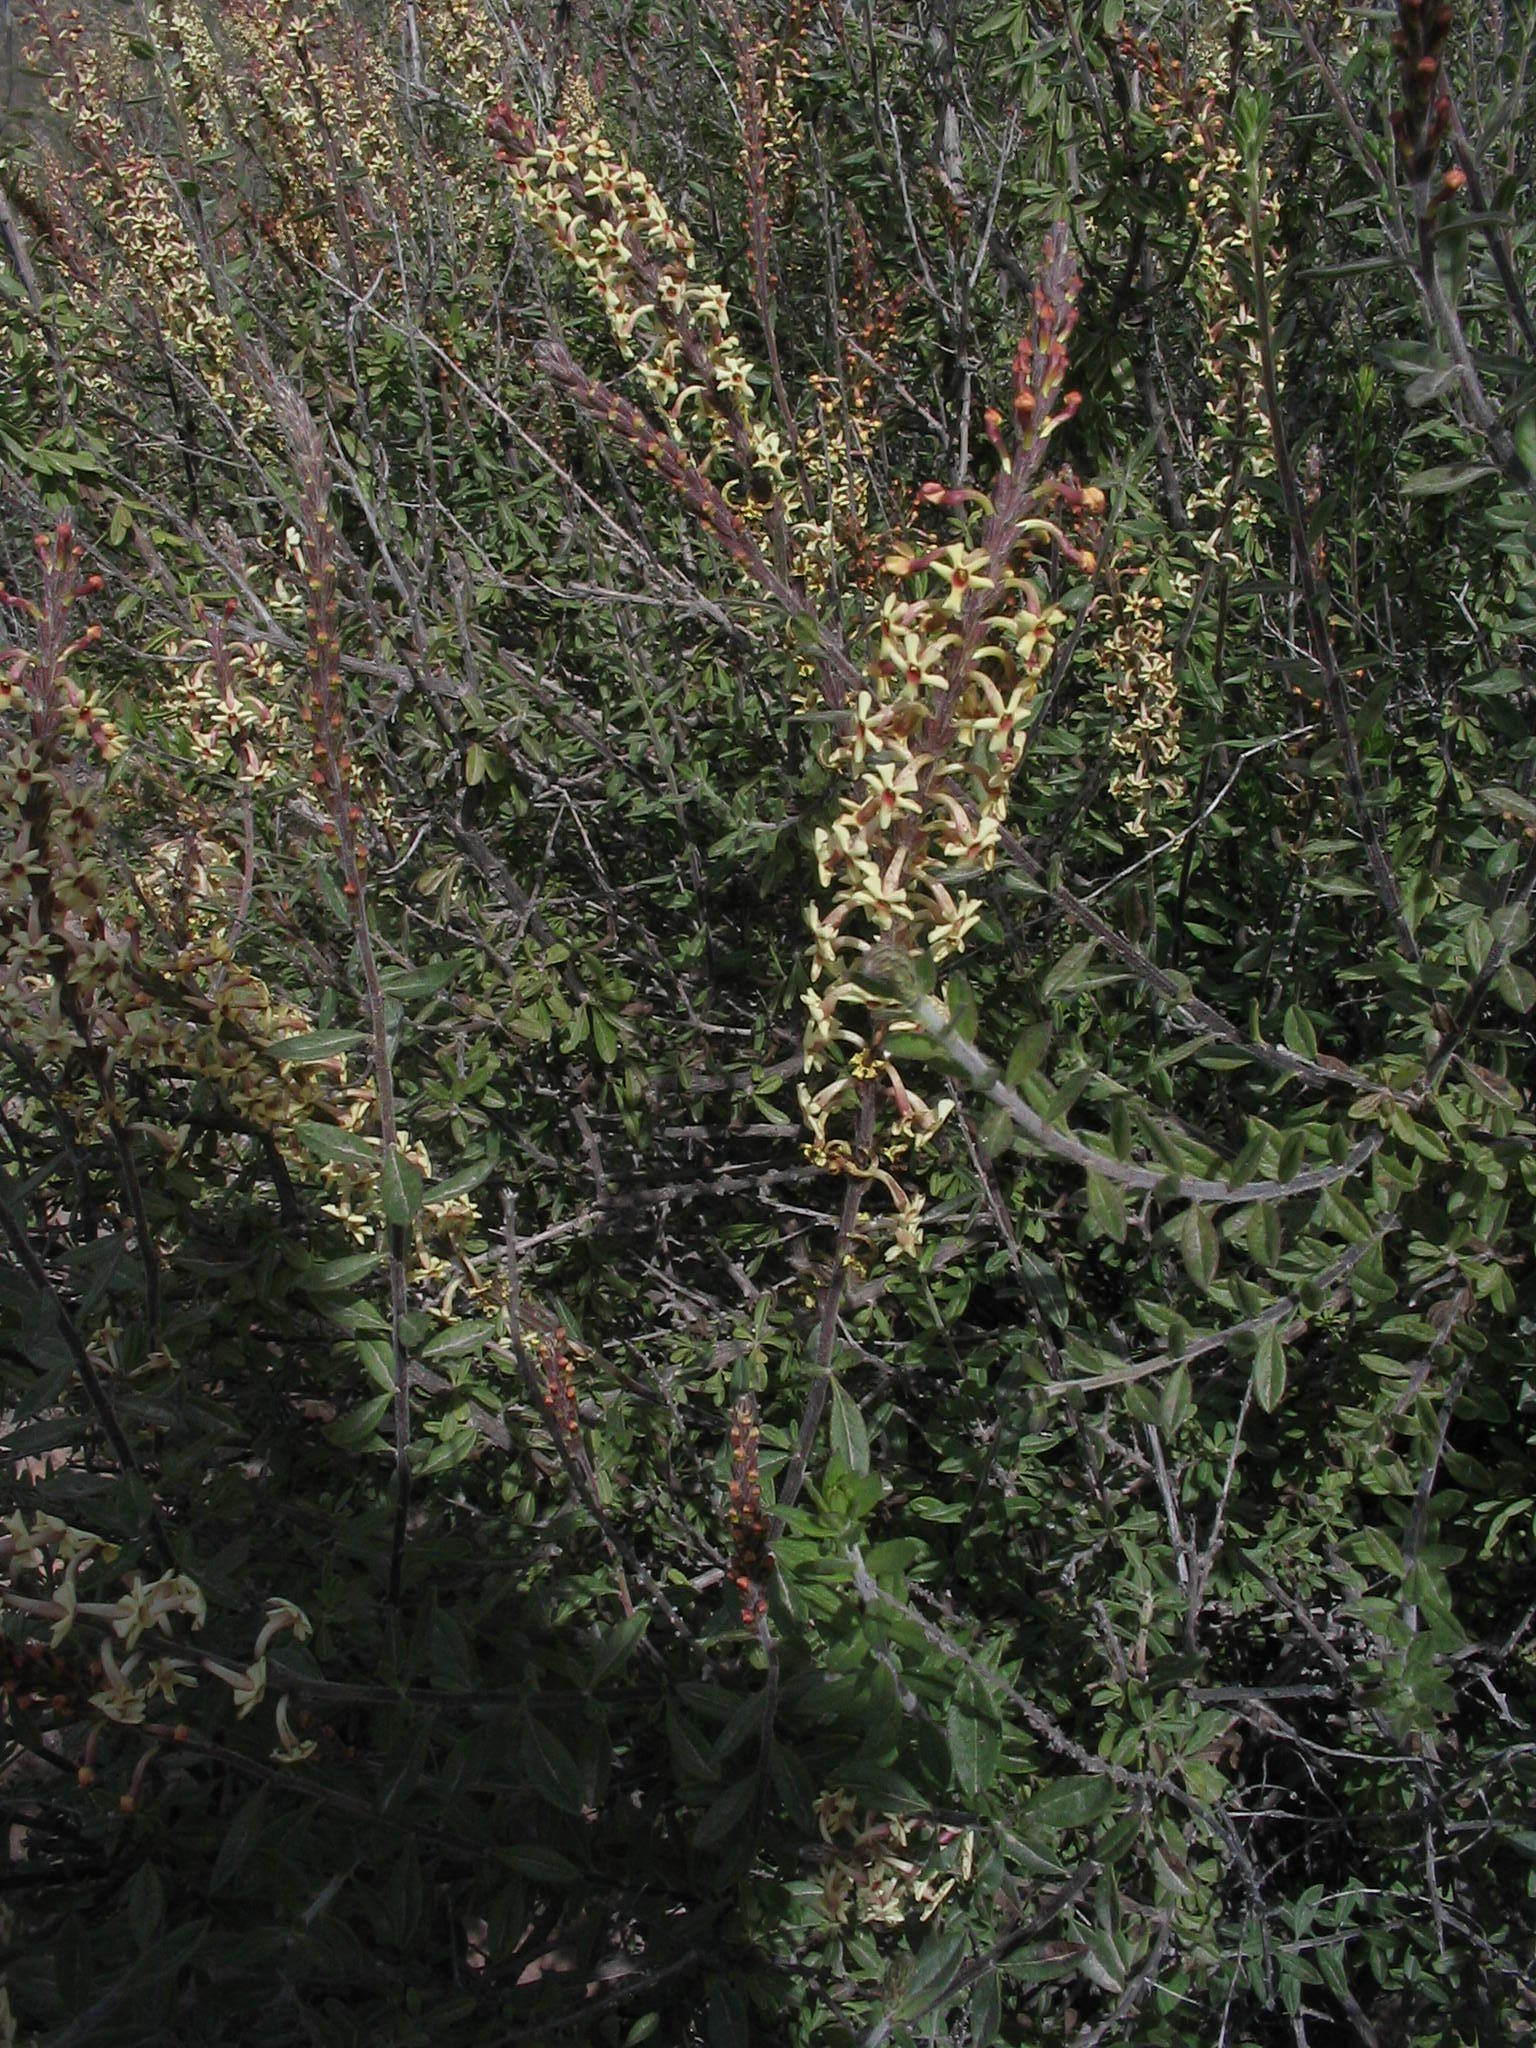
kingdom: Plantae
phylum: Tracheophyta
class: Magnoliopsida
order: Lamiales
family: Verbenaceae
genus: Mulguraea
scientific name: Mulguraea arequipensis
